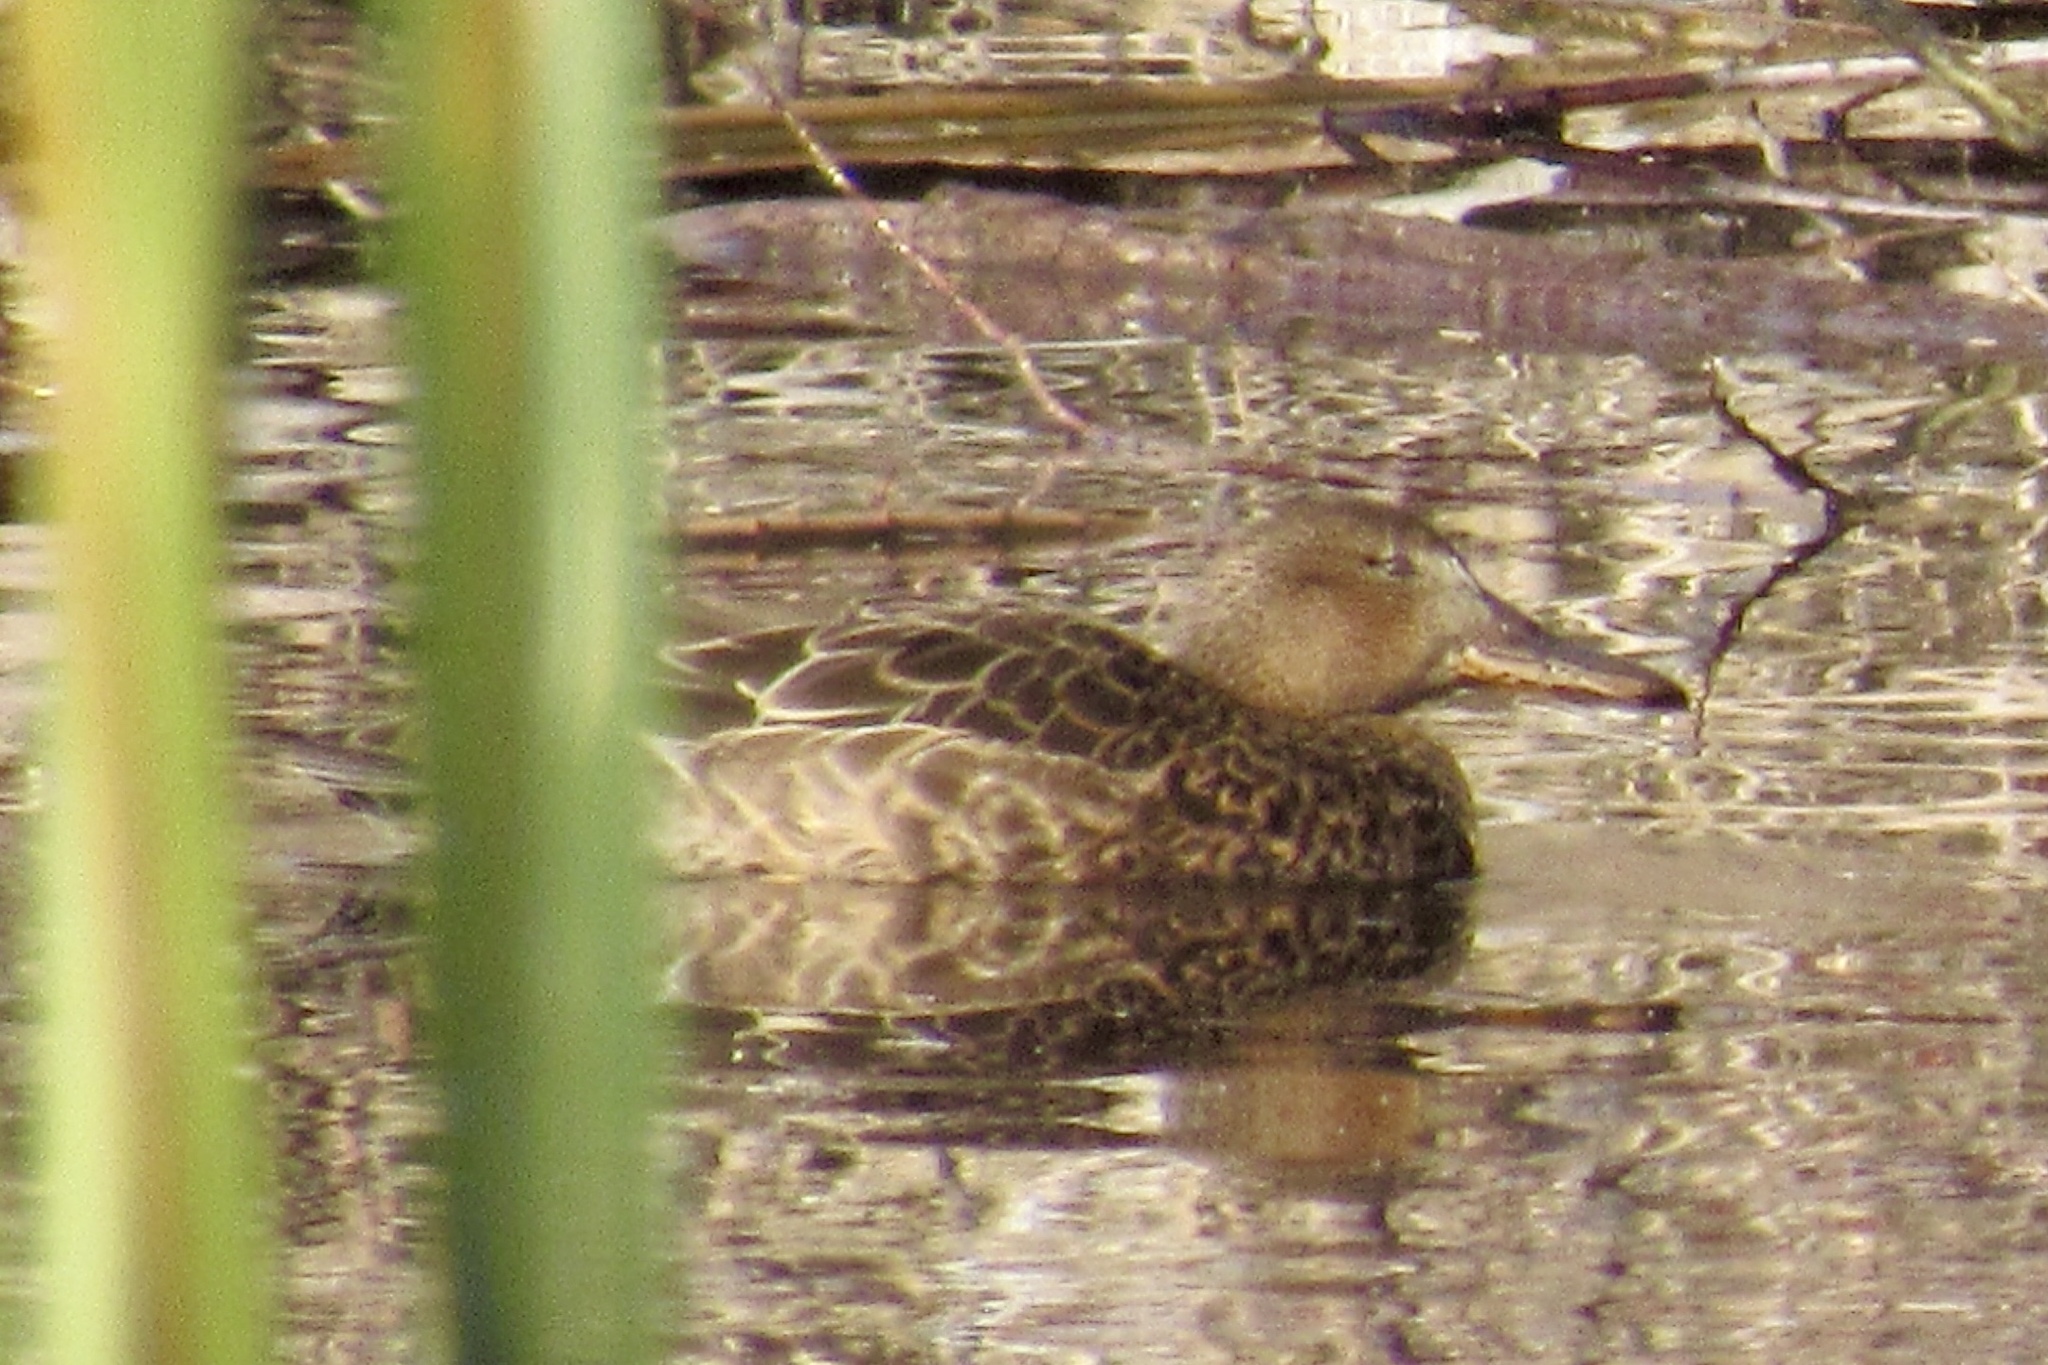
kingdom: Animalia
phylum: Chordata
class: Aves
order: Anseriformes
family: Anatidae
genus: Spatula
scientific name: Spatula cyanoptera
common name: Cinnamon teal
